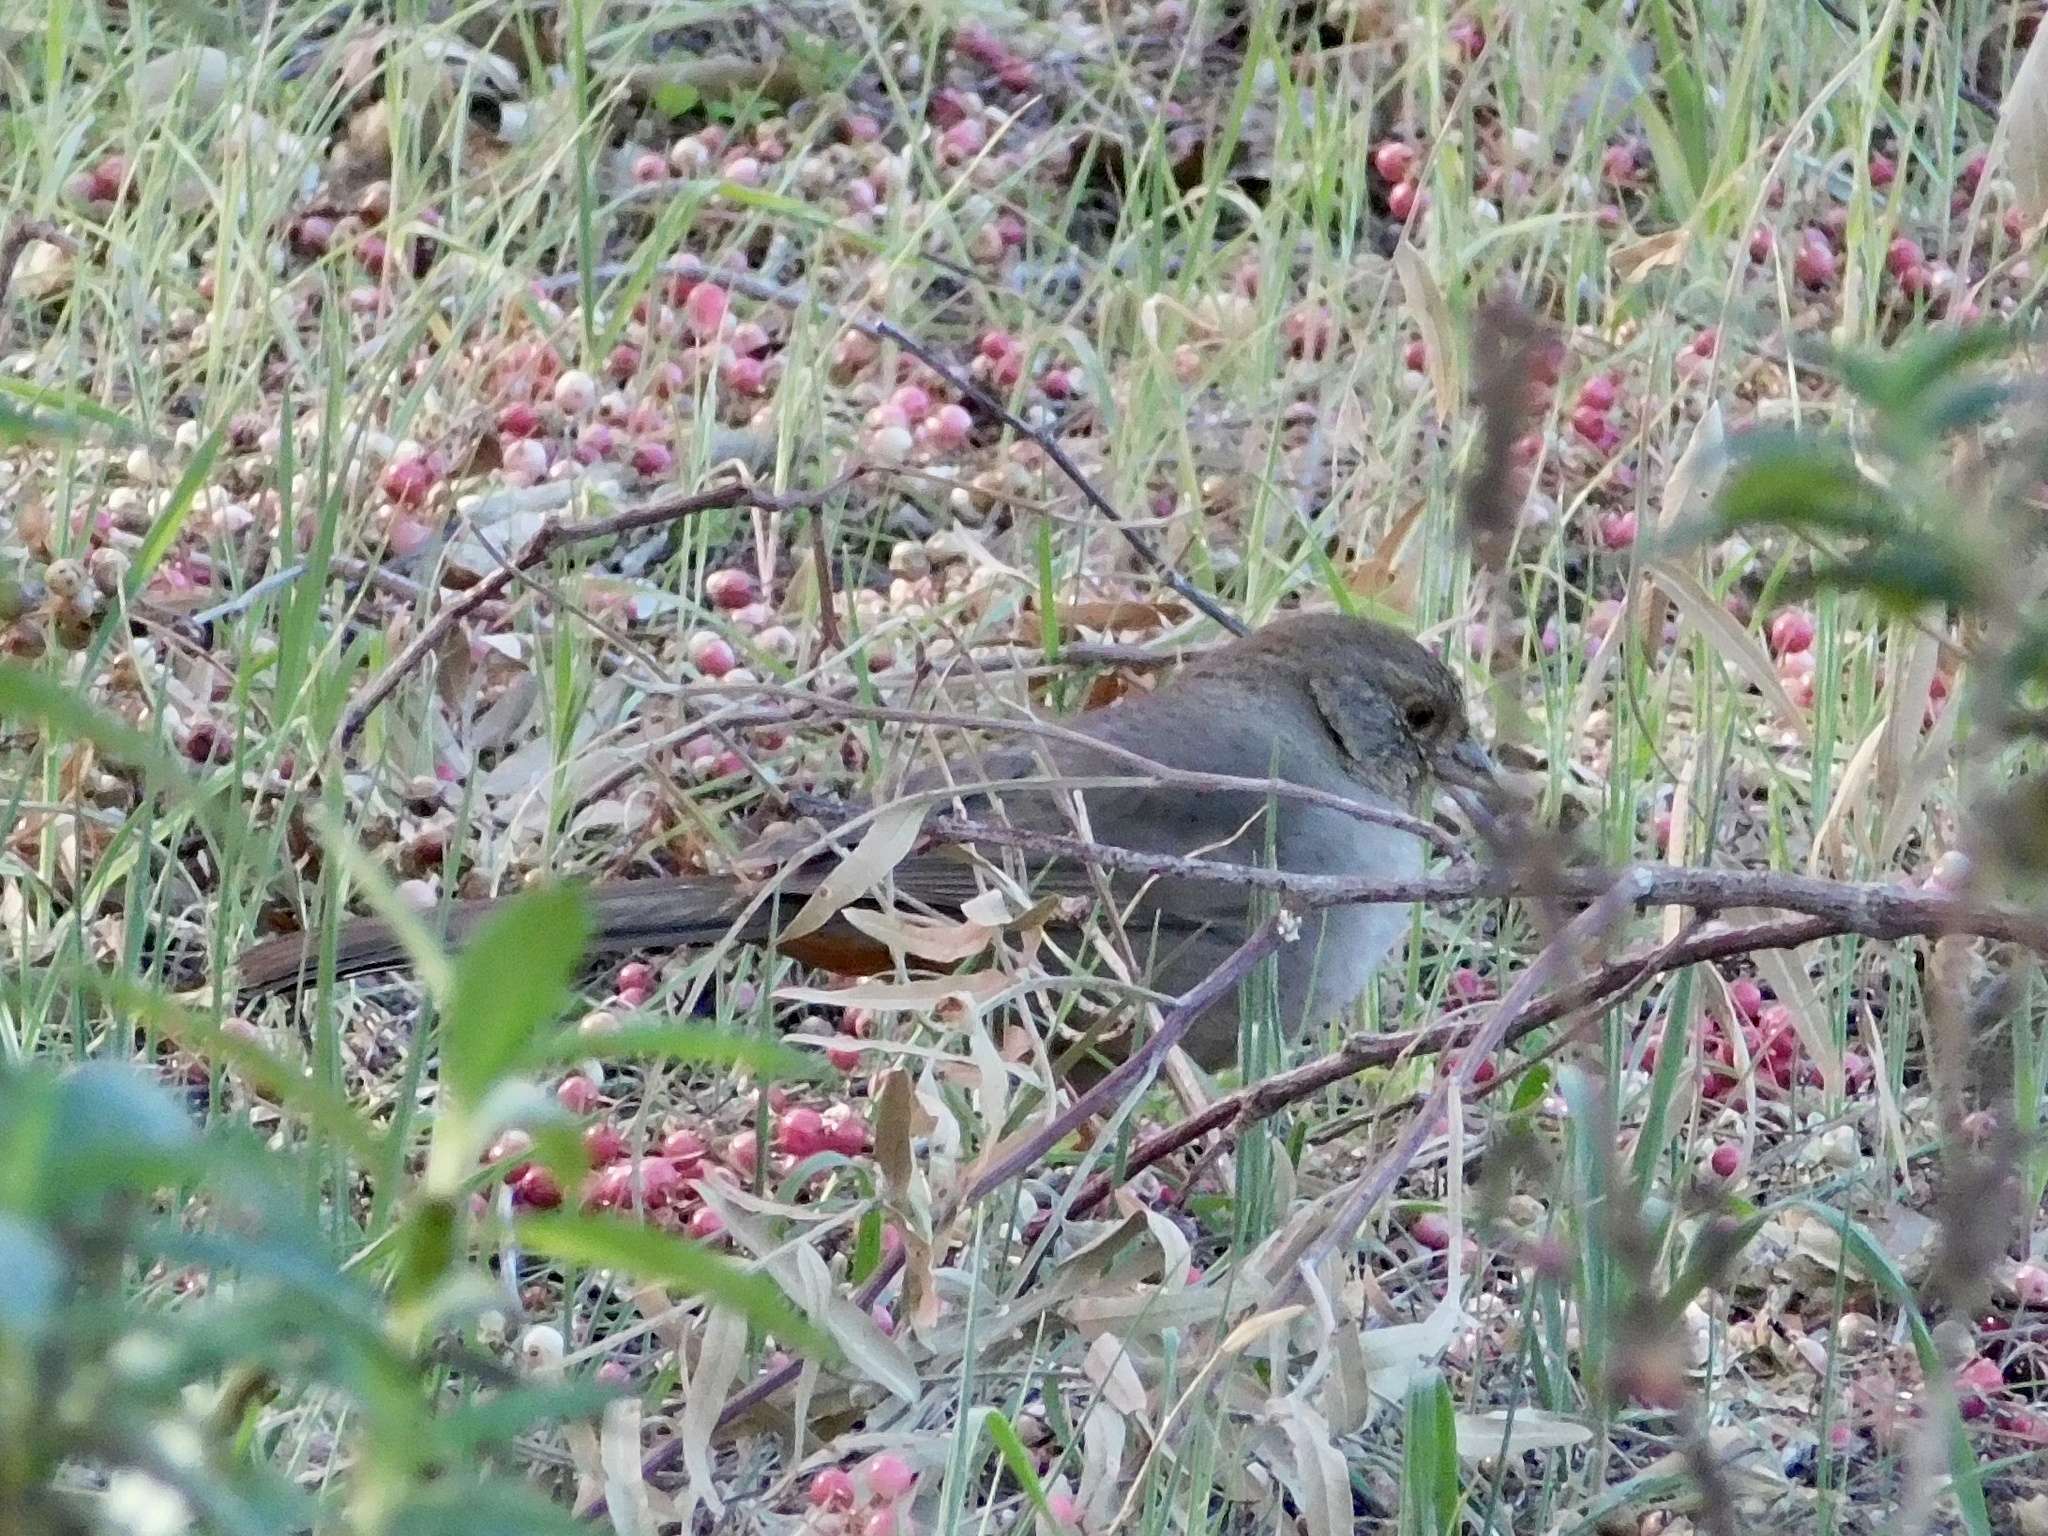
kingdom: Animalia
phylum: Chordata
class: Aves
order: Passeriformes
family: Passerellidae
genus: Melozone
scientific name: Melozone crissalis
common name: California towhee
